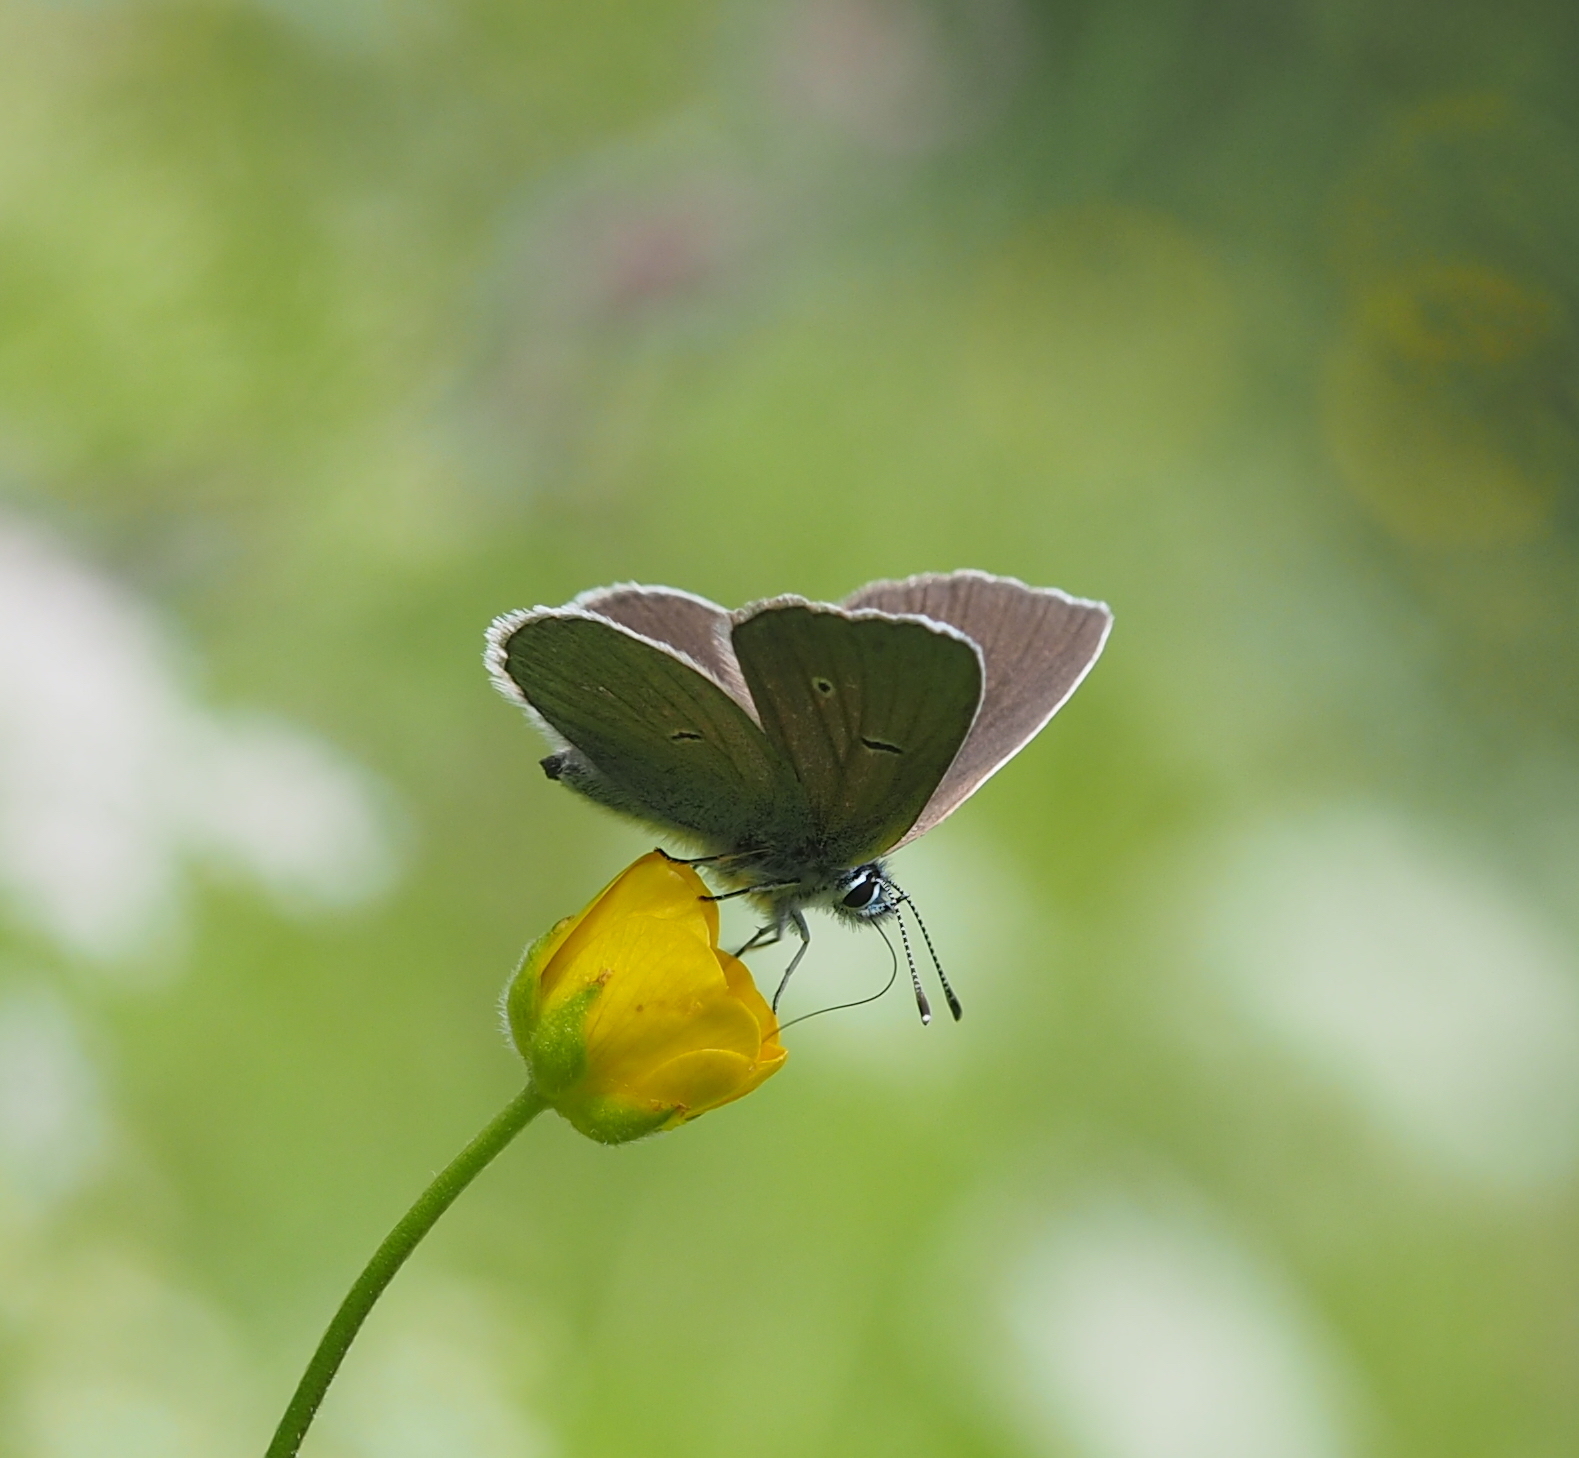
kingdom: Animalia
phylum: Arthropoda
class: Insecta
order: Lepidoptera
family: Lycaenidae
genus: Cyaniris
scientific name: Cyaniris semiargus
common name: Mazarine blue
